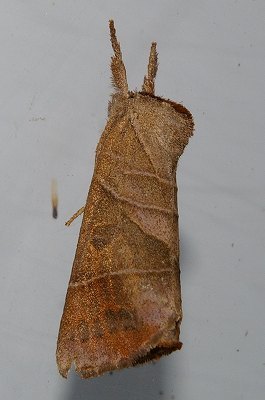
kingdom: Animalia
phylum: Arthropoda
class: Insecta
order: Lepidoptera
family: Notodontidae
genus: Clostera
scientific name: Clostera anastomosis
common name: Poplar tip moth
